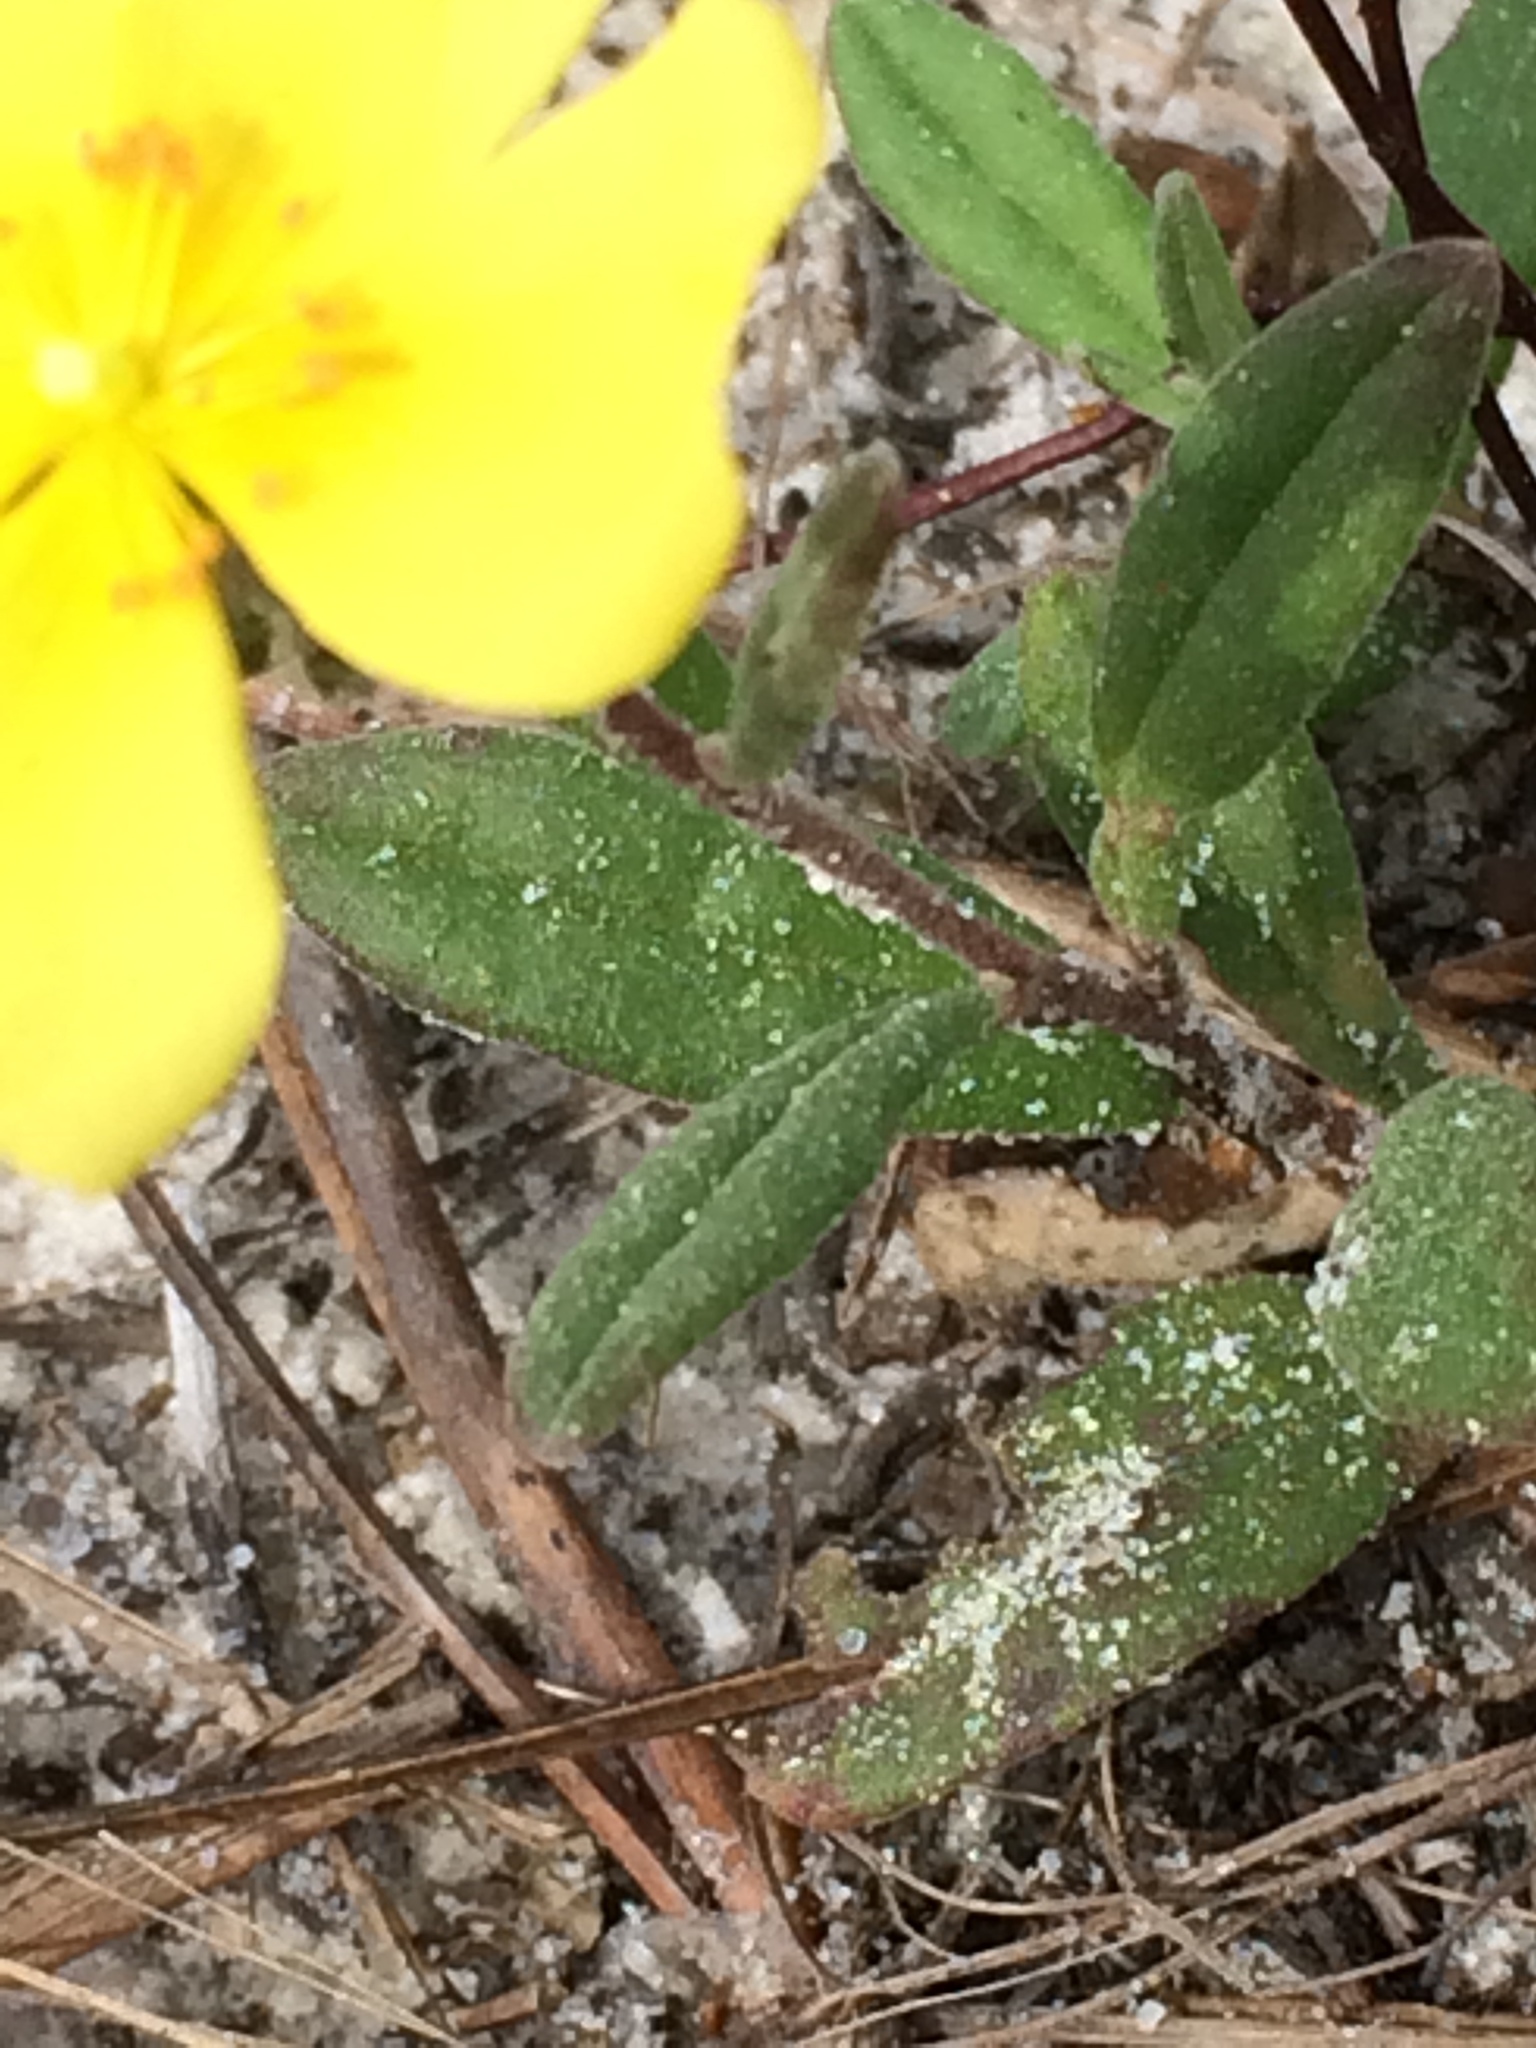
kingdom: Plantae
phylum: Tracheophyta
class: Magnoliopsida
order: Malvales
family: Cistaceae
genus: Crocanthemum
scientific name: Crocanthemum carolinianum
